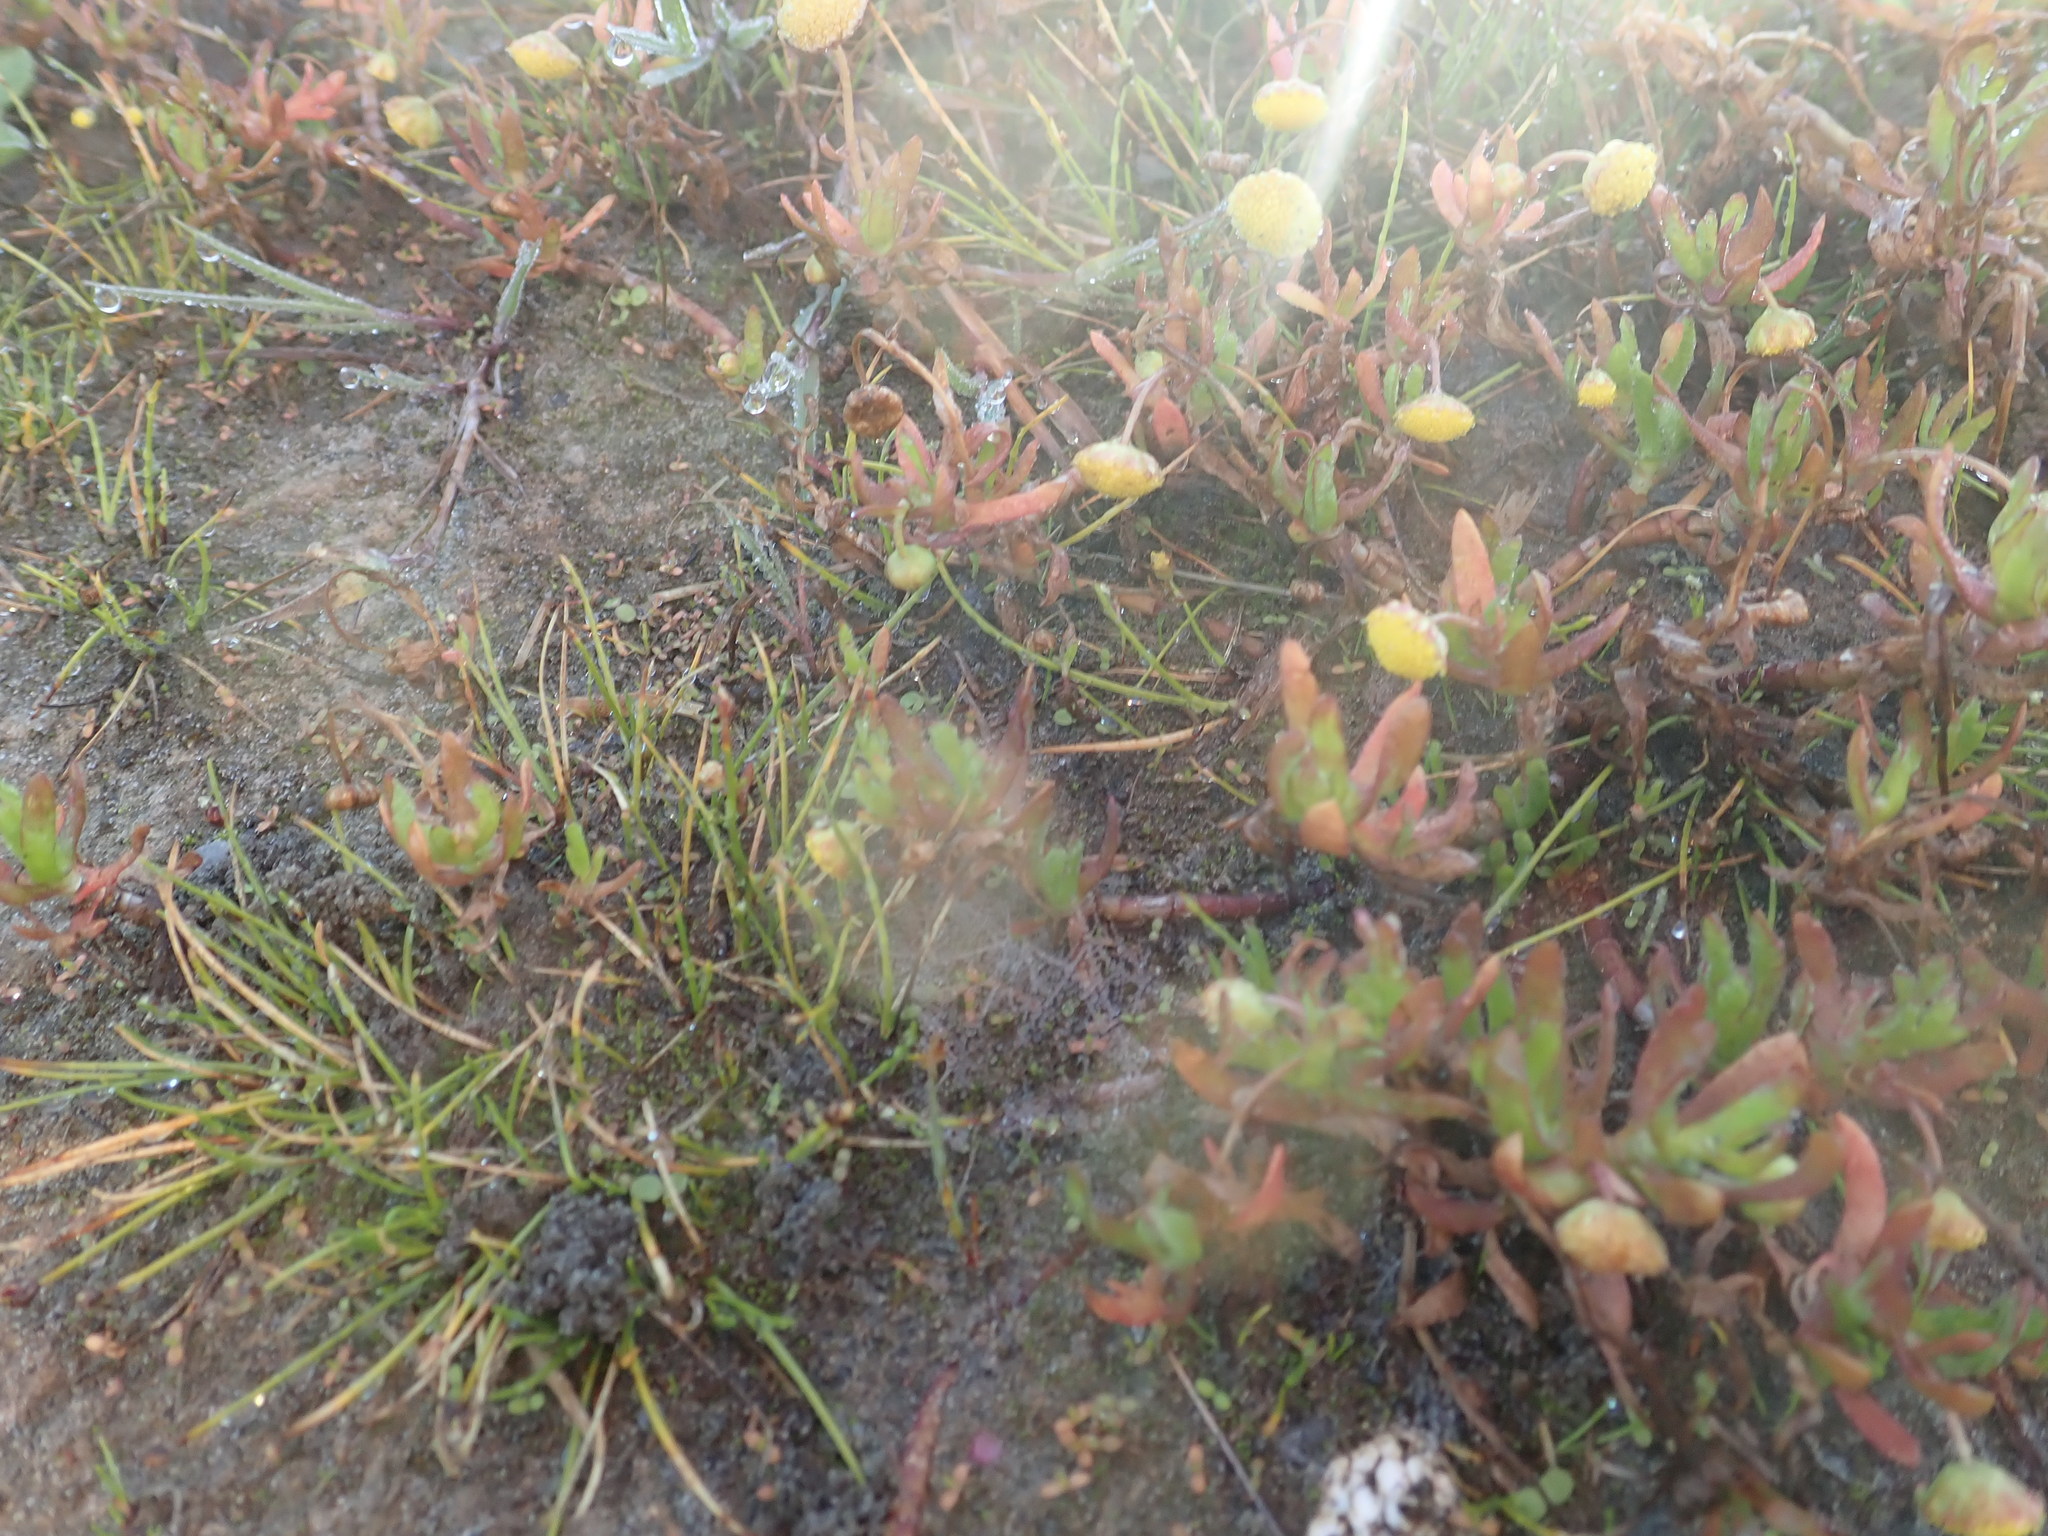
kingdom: Plantae
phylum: Tracheophyta
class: Magnoliopsida
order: Asterales
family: Asteraceae
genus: Cotula
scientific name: Cotula coronopifolia
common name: Buttonweed
